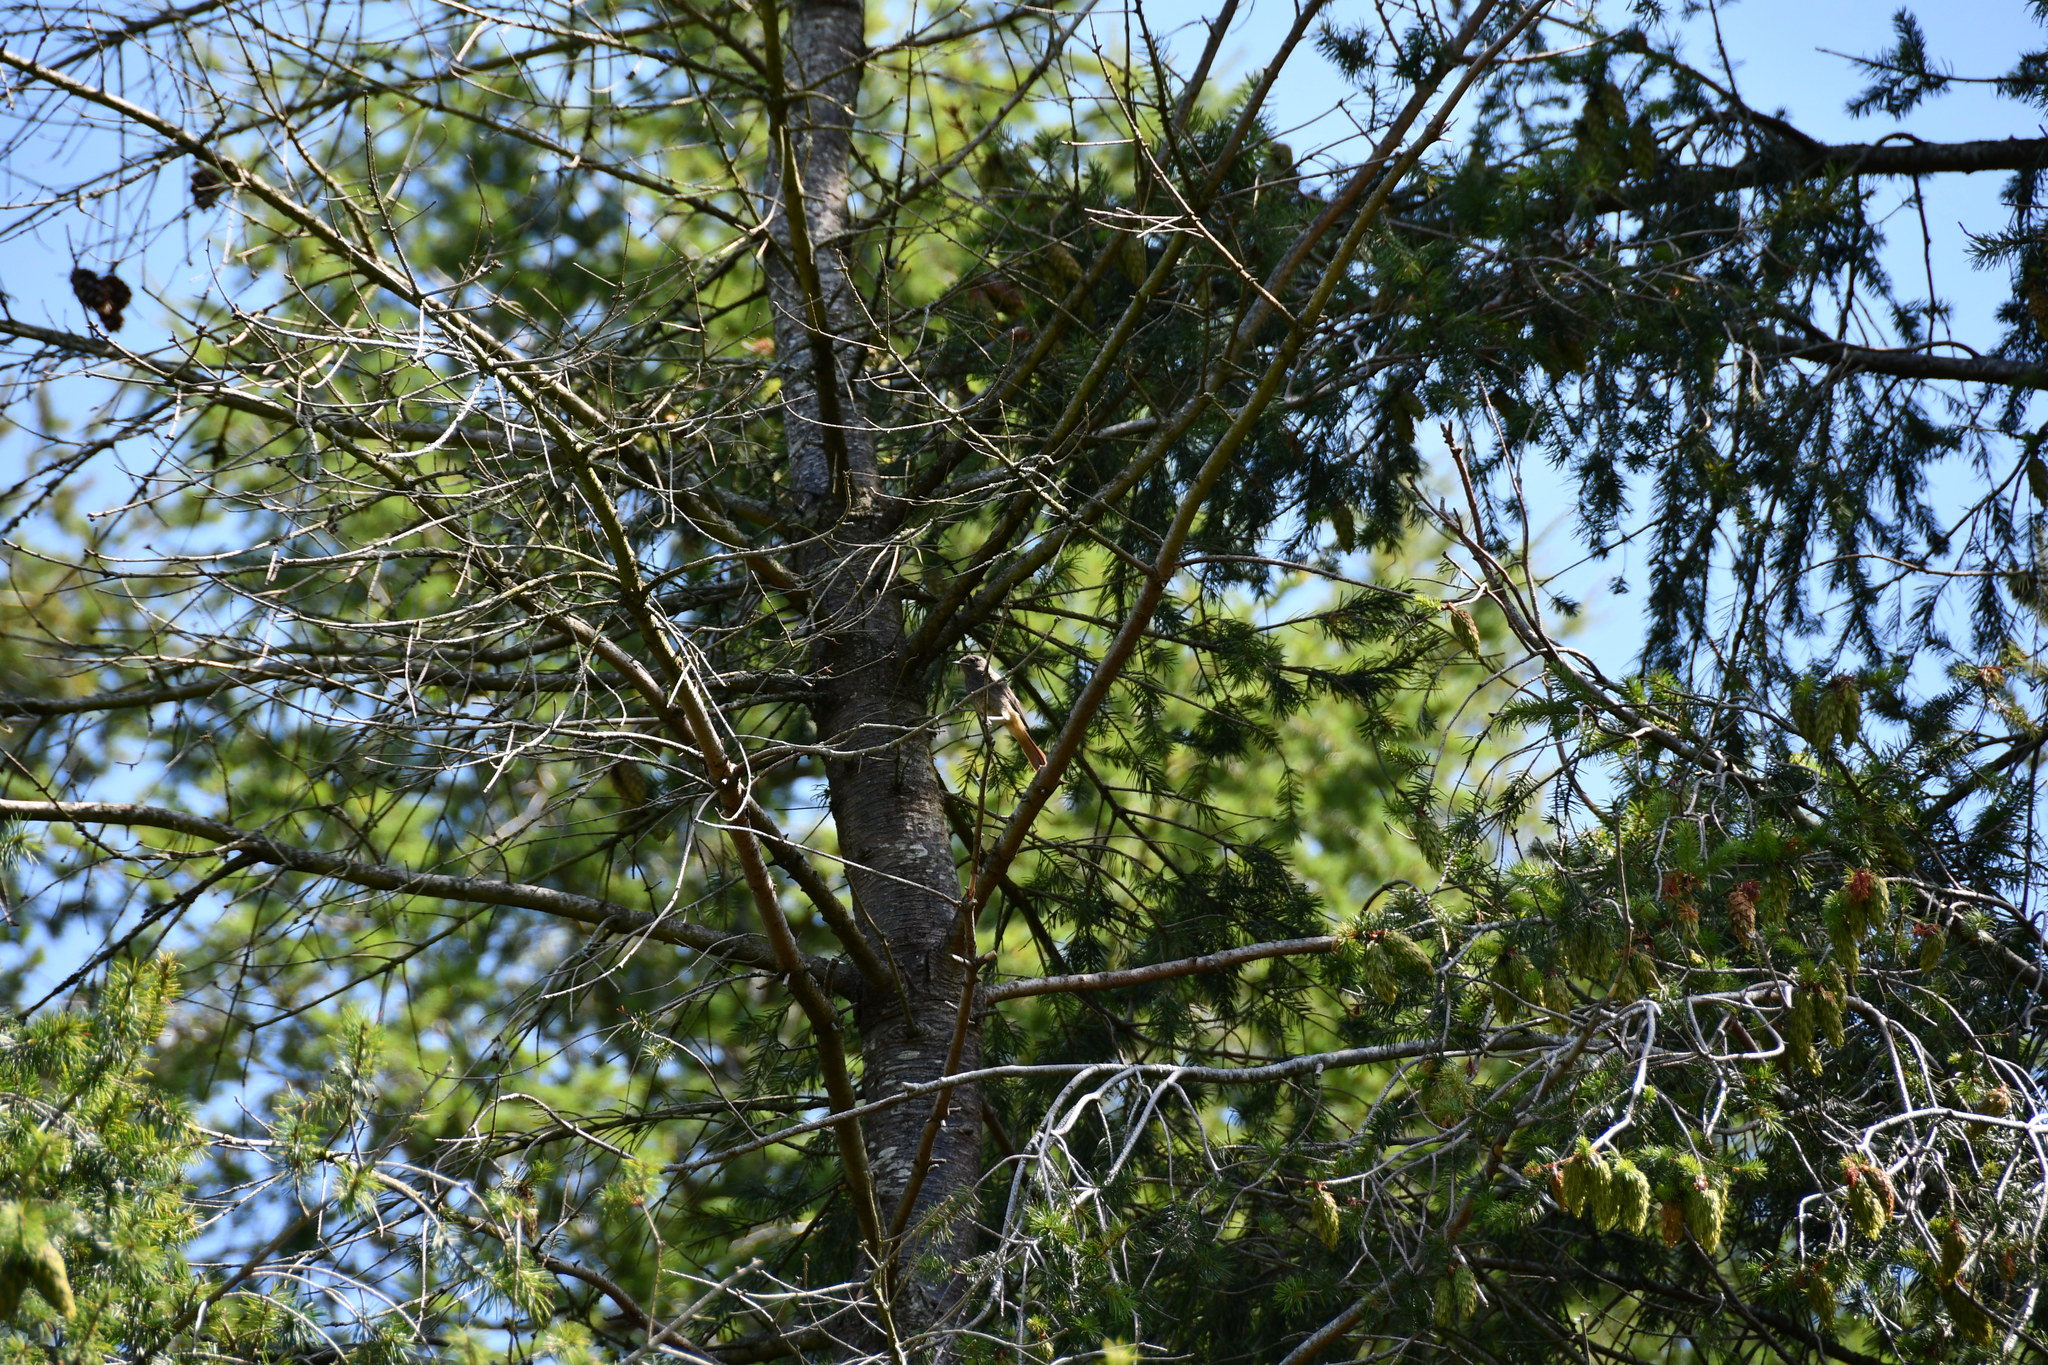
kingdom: Animalia
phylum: Chordata
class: Aves
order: Passeriformes
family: Muscicapidae
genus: Phoenicurus
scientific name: Phoenicurus ochruros
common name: Black redstart
